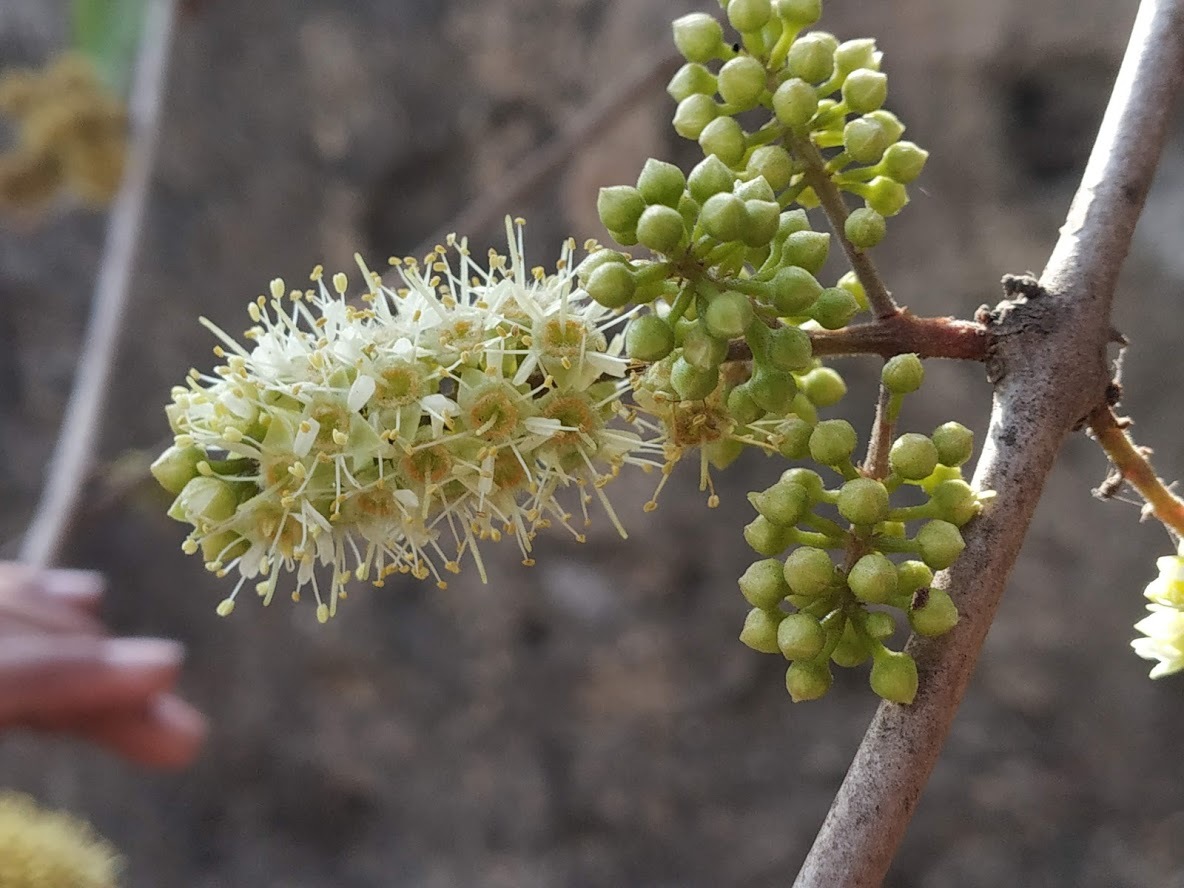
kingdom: Plantae
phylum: Tracheophyta
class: Magnoliopsida
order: Myrtales
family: Combretaceae
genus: Combretum
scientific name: Combretum albidum
